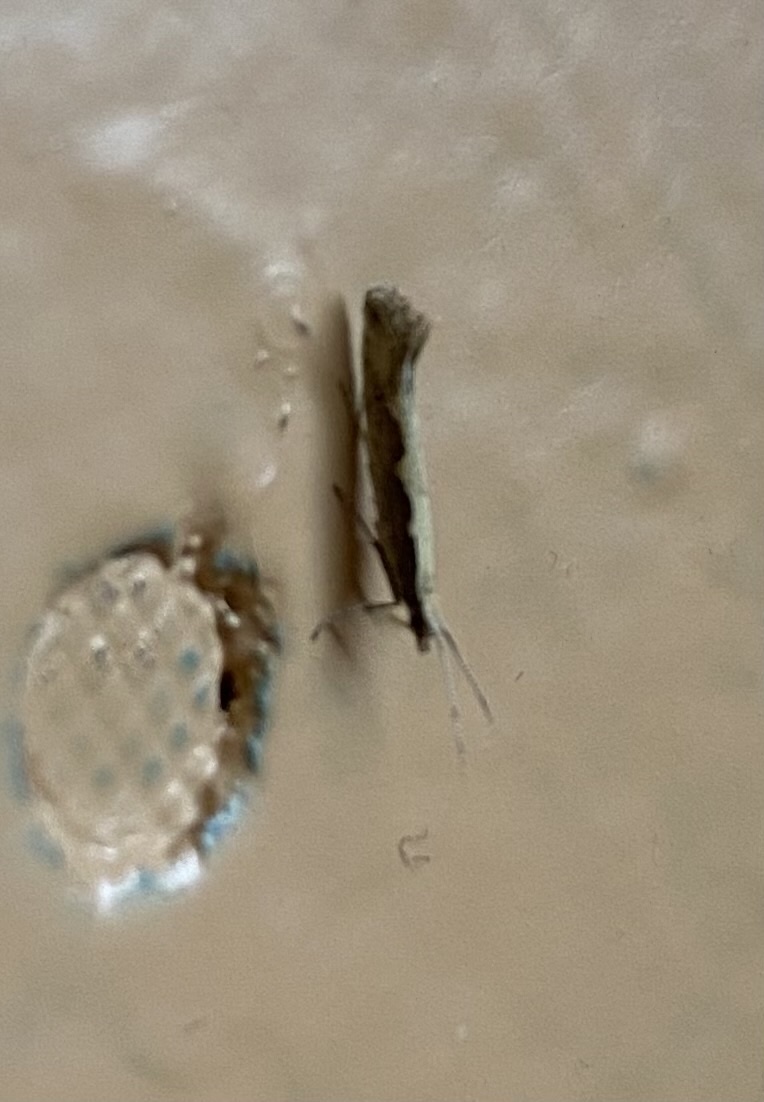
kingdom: Animalia
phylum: Arthropoda
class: Insecta
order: Lepidoptera
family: Plutellidae
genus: Plutella
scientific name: Plutella xylostella
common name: Diamond-back moth
